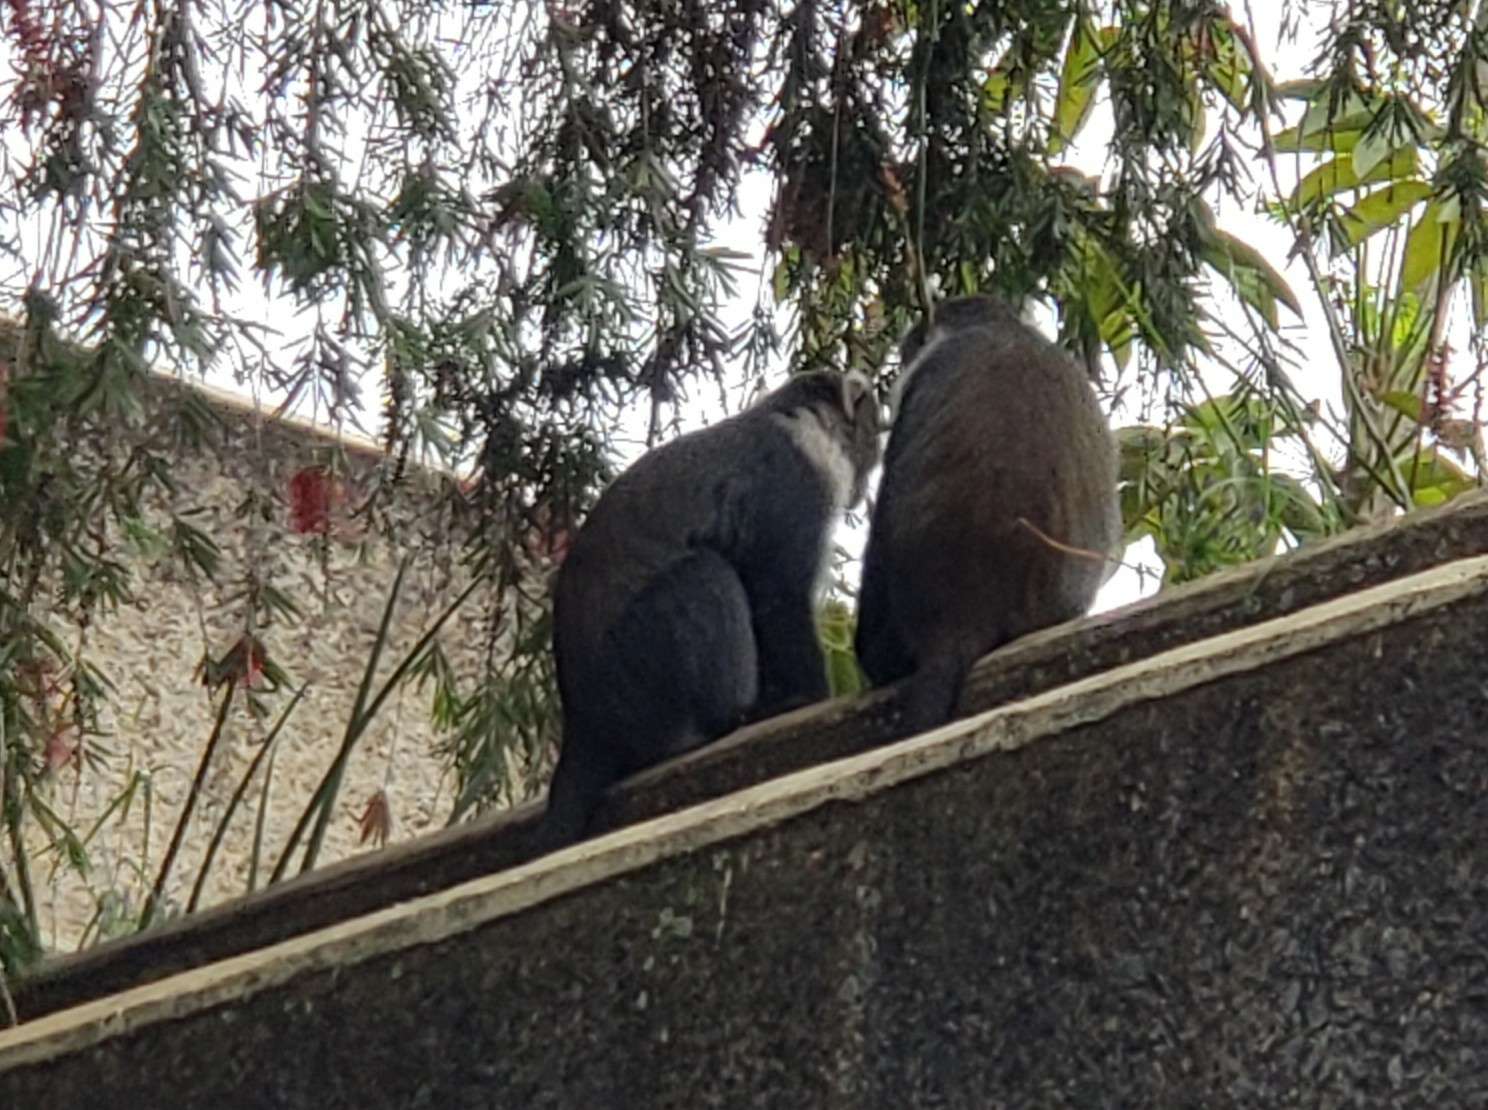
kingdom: Animalia
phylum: Chordata
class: Mammalia
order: Primates
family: Cercopithecidae
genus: Cercopithecus
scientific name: Cercopithecus mitis
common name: Blue monkey
